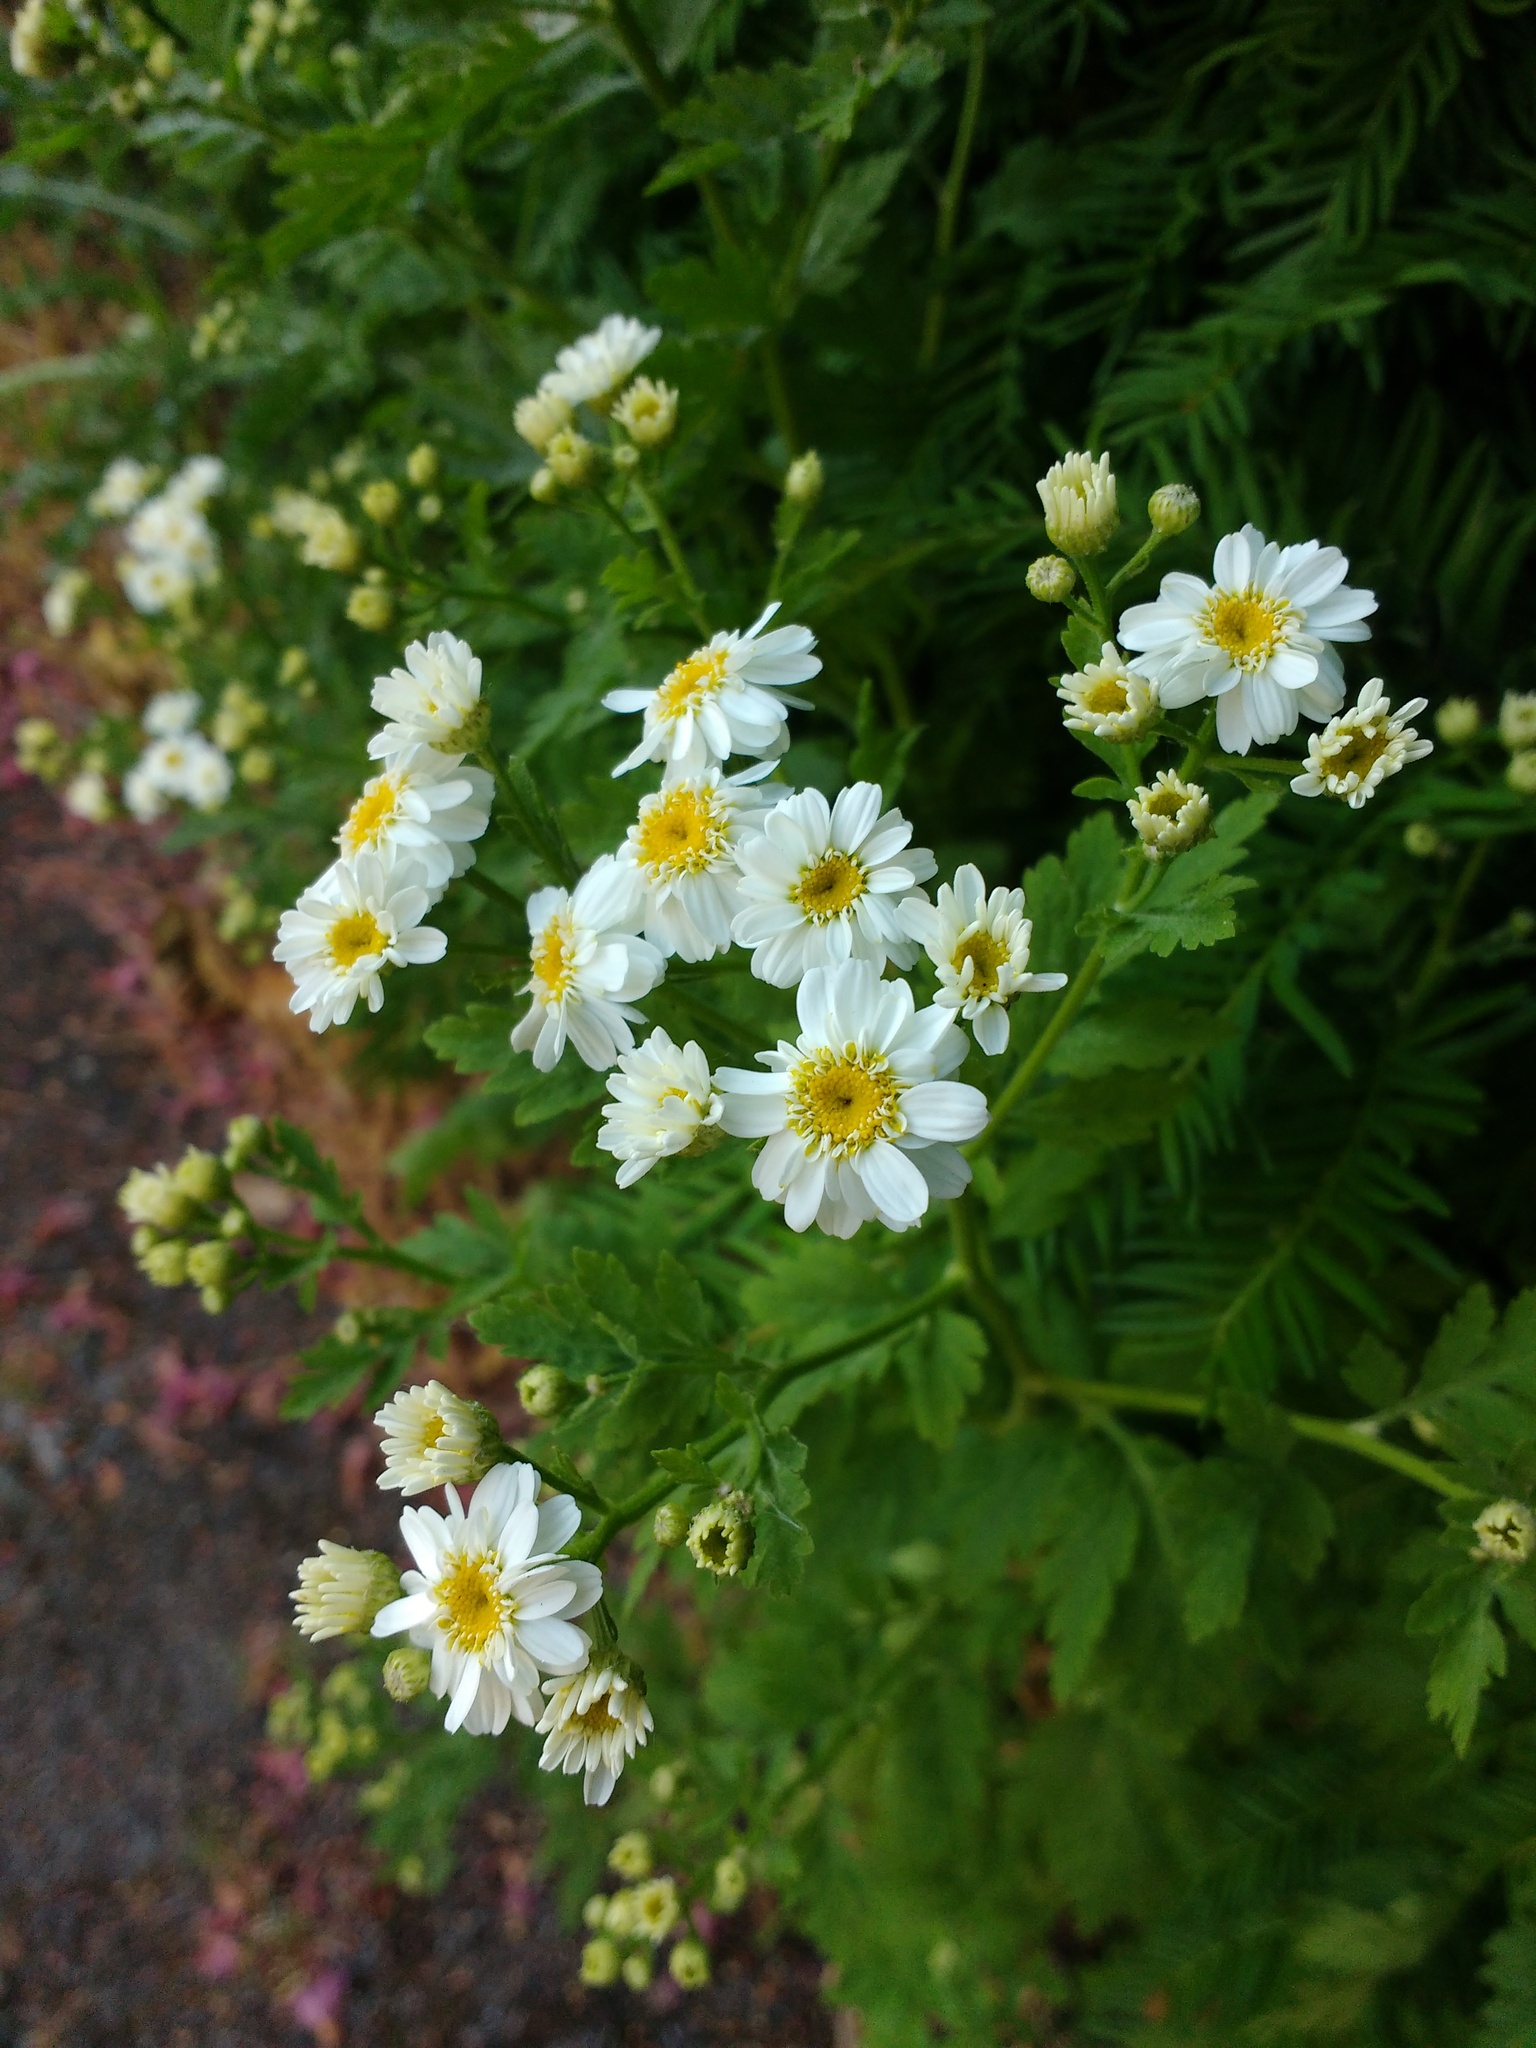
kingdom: Plantae
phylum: Tracheophyta
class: Magnoliopsida
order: Asterales
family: Asteraceae
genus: Tanacetum
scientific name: Tanacetum parthenium
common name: Feverfew
